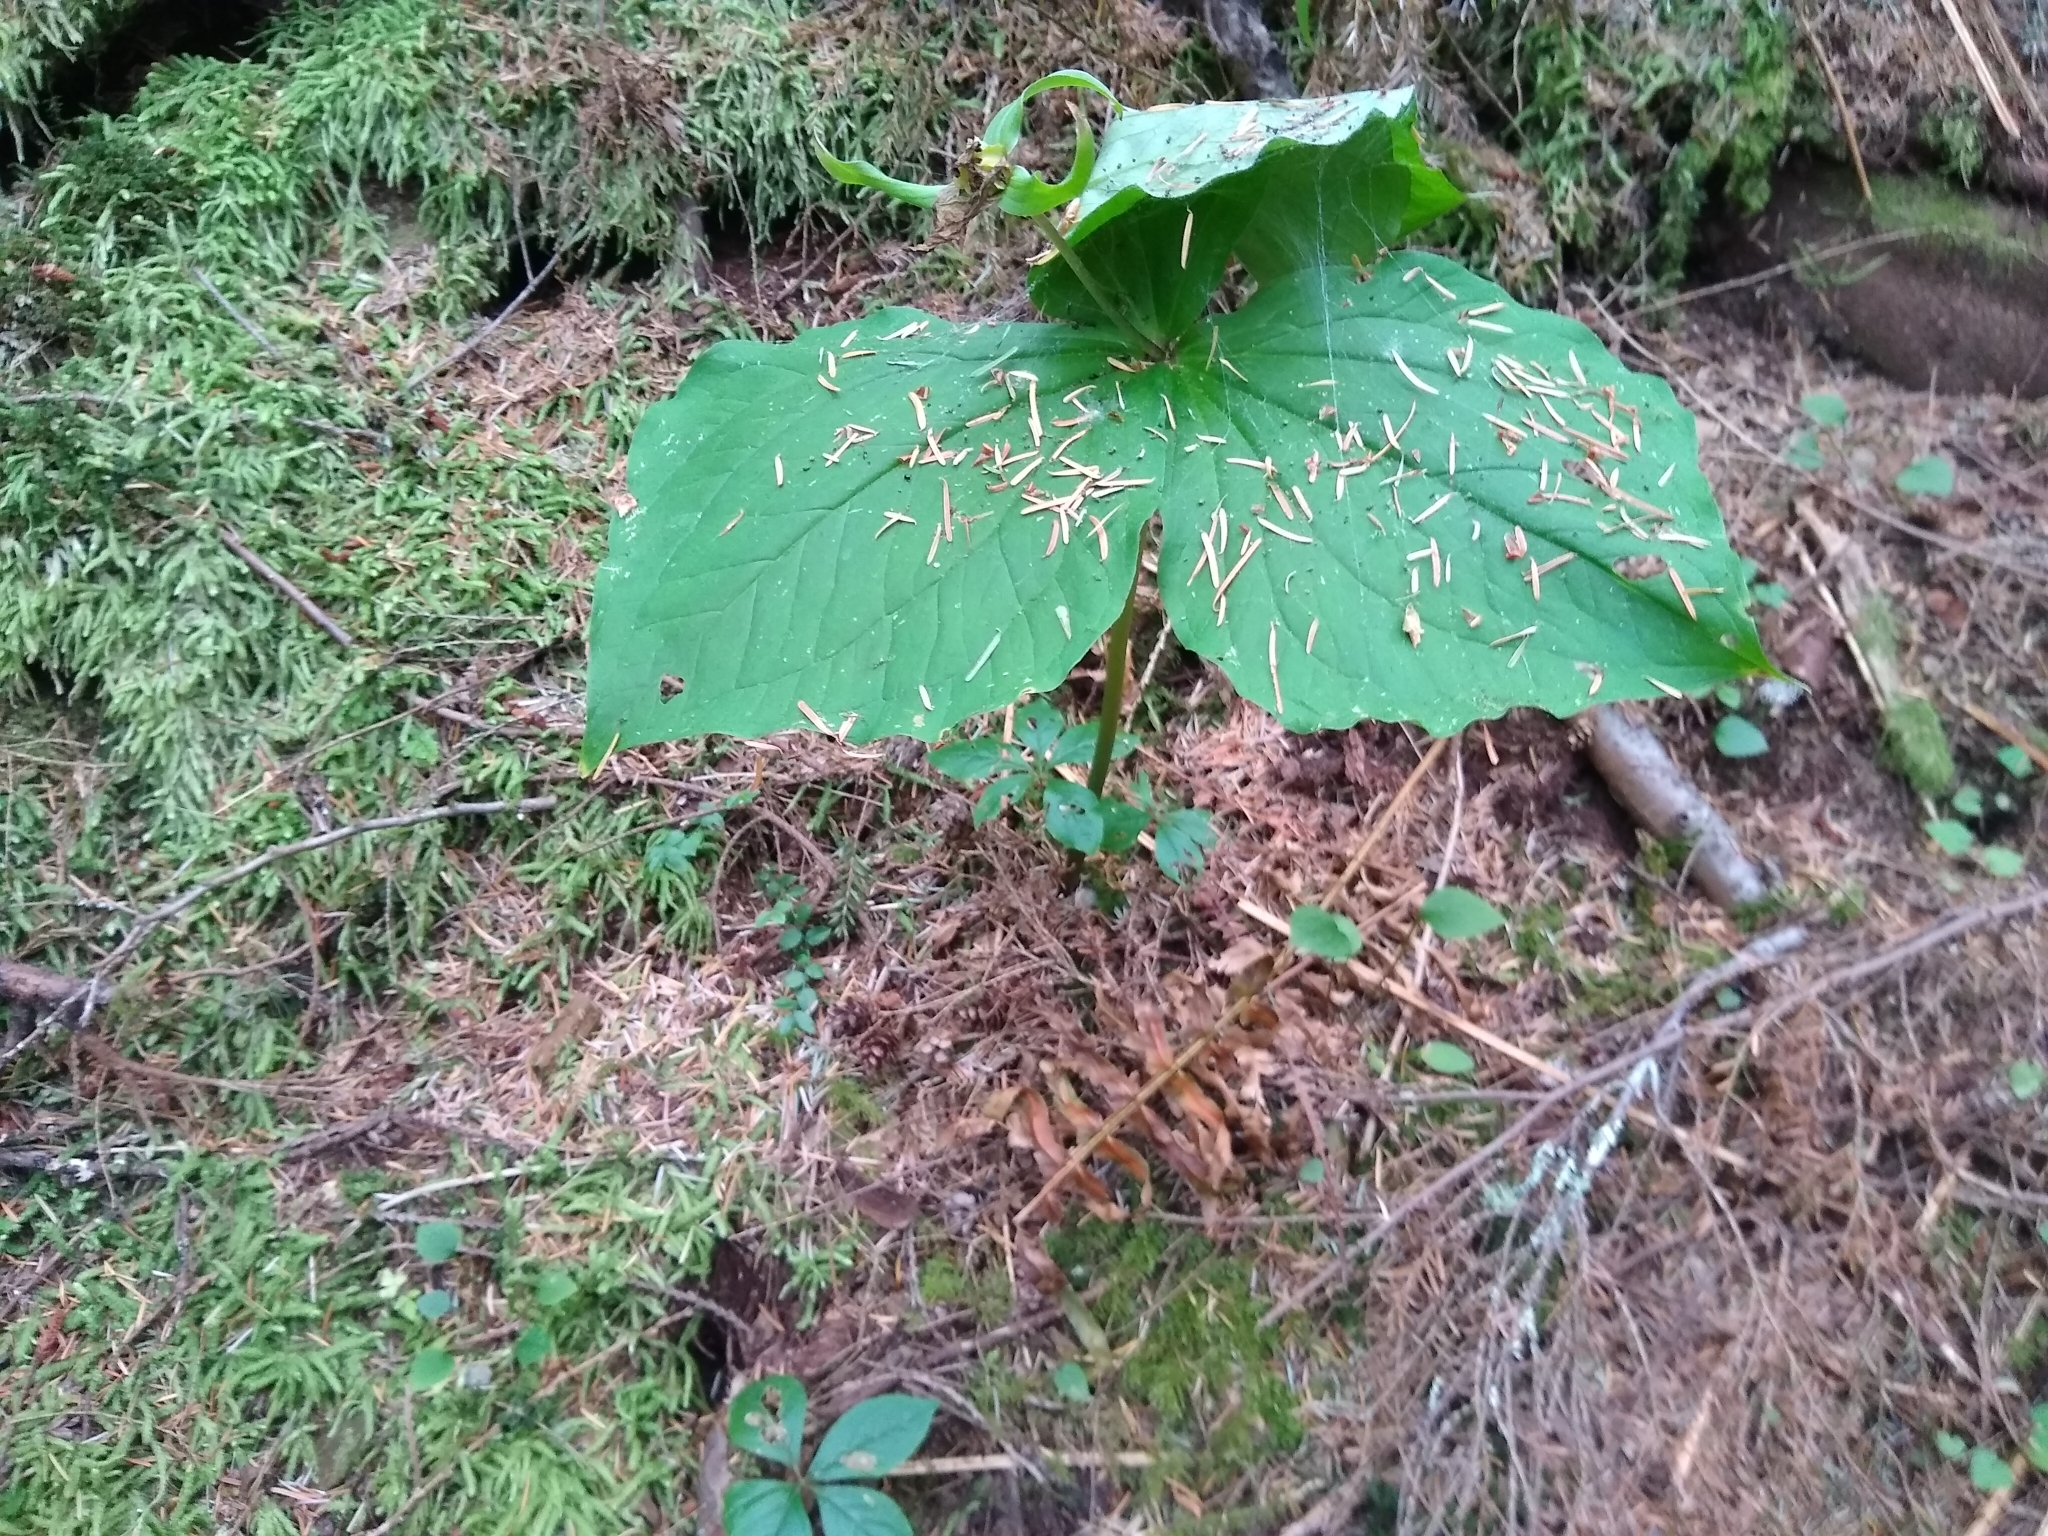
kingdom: Plantae
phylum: Tracheophyta
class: Liliopsida
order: Liliales
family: Melanthiaceae
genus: Trillium
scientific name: Trillium ovatum
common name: Pacific trillium
